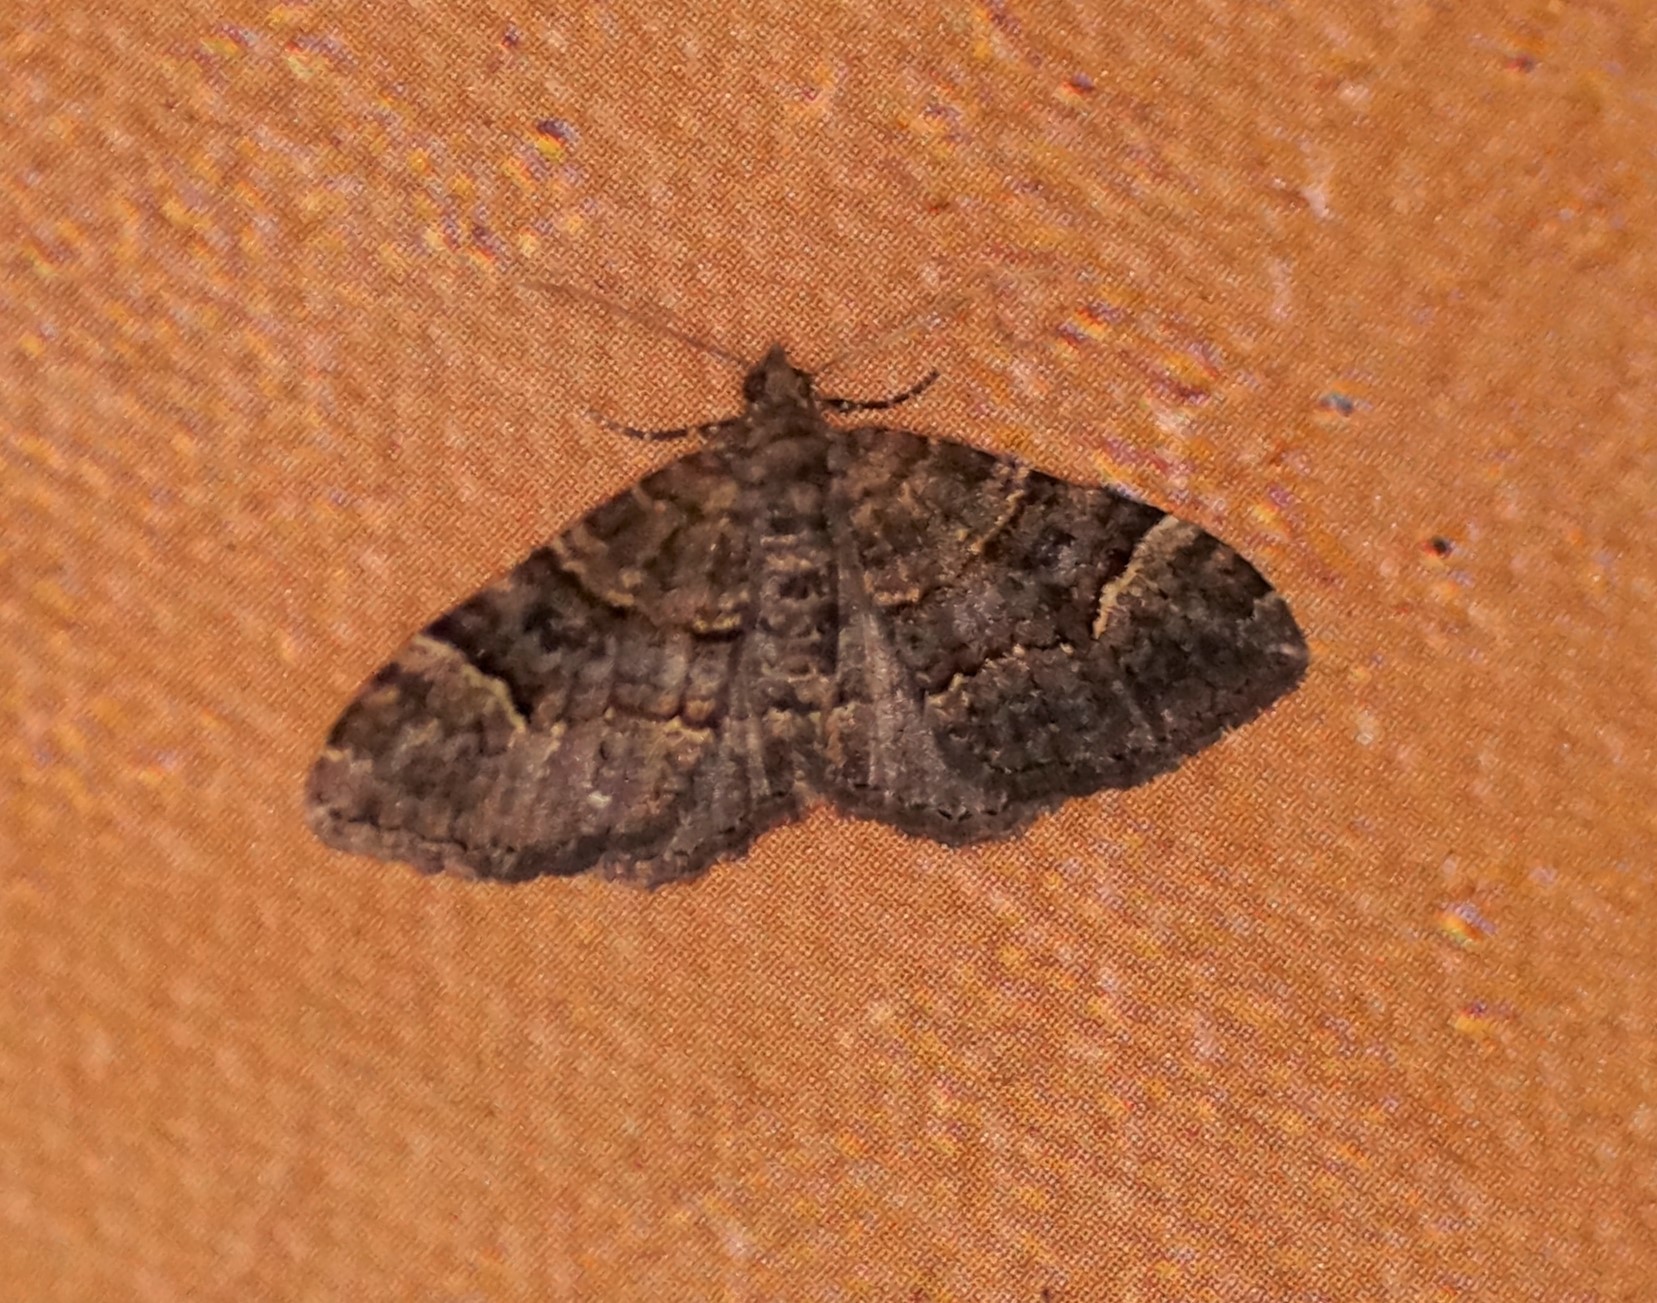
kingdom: Animalia
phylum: Arthropoda
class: Insecta
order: Lepidoptera
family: Geometridae
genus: Epyaxa
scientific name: Epyaxa sodaliata
